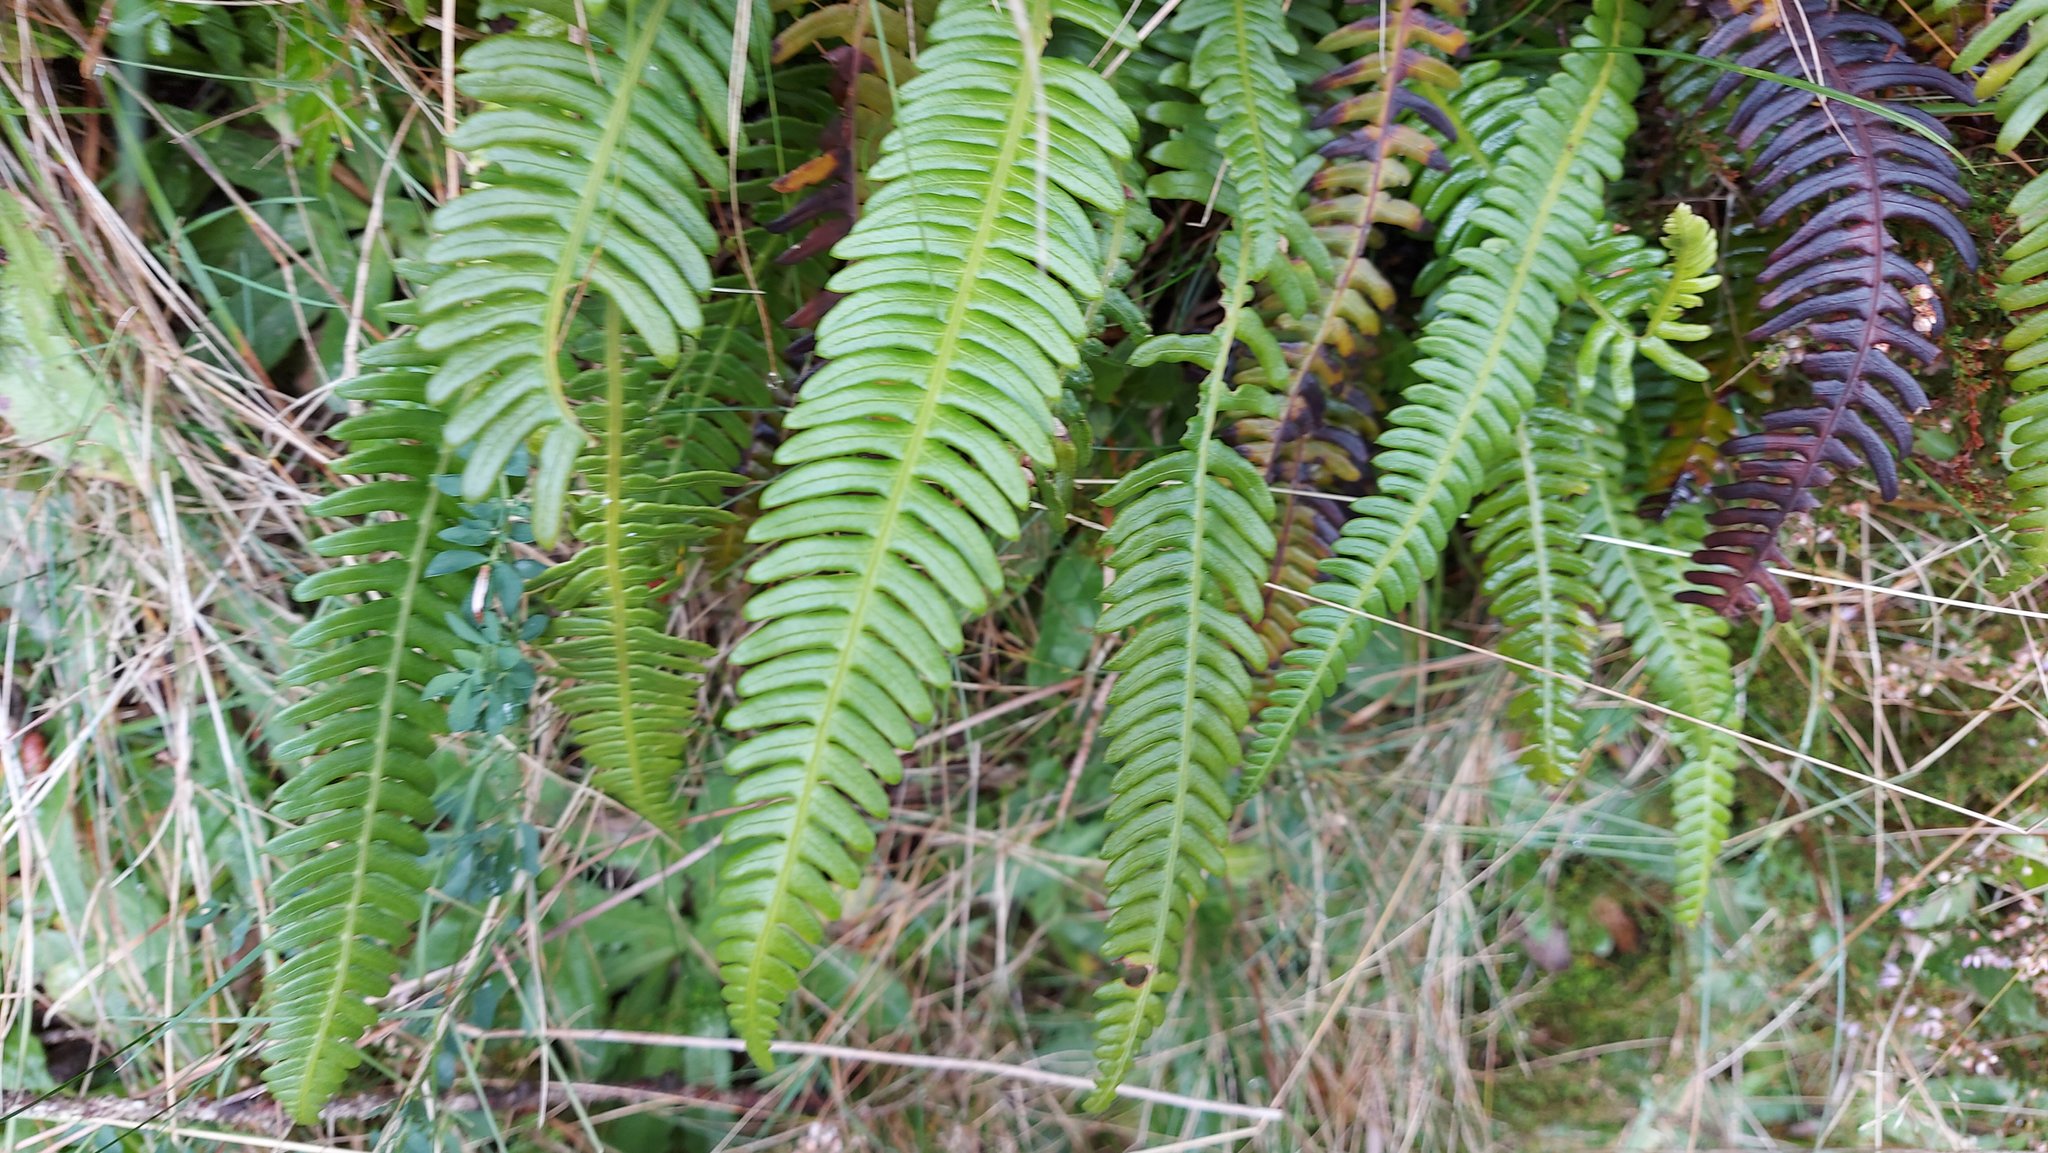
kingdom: Plantae
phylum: Tracheophyta
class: Polypodiopsida
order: Polypodiales
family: Blechnaceae
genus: Struthiopteris
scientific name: Struthiopteris spicant
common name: Deer fern
